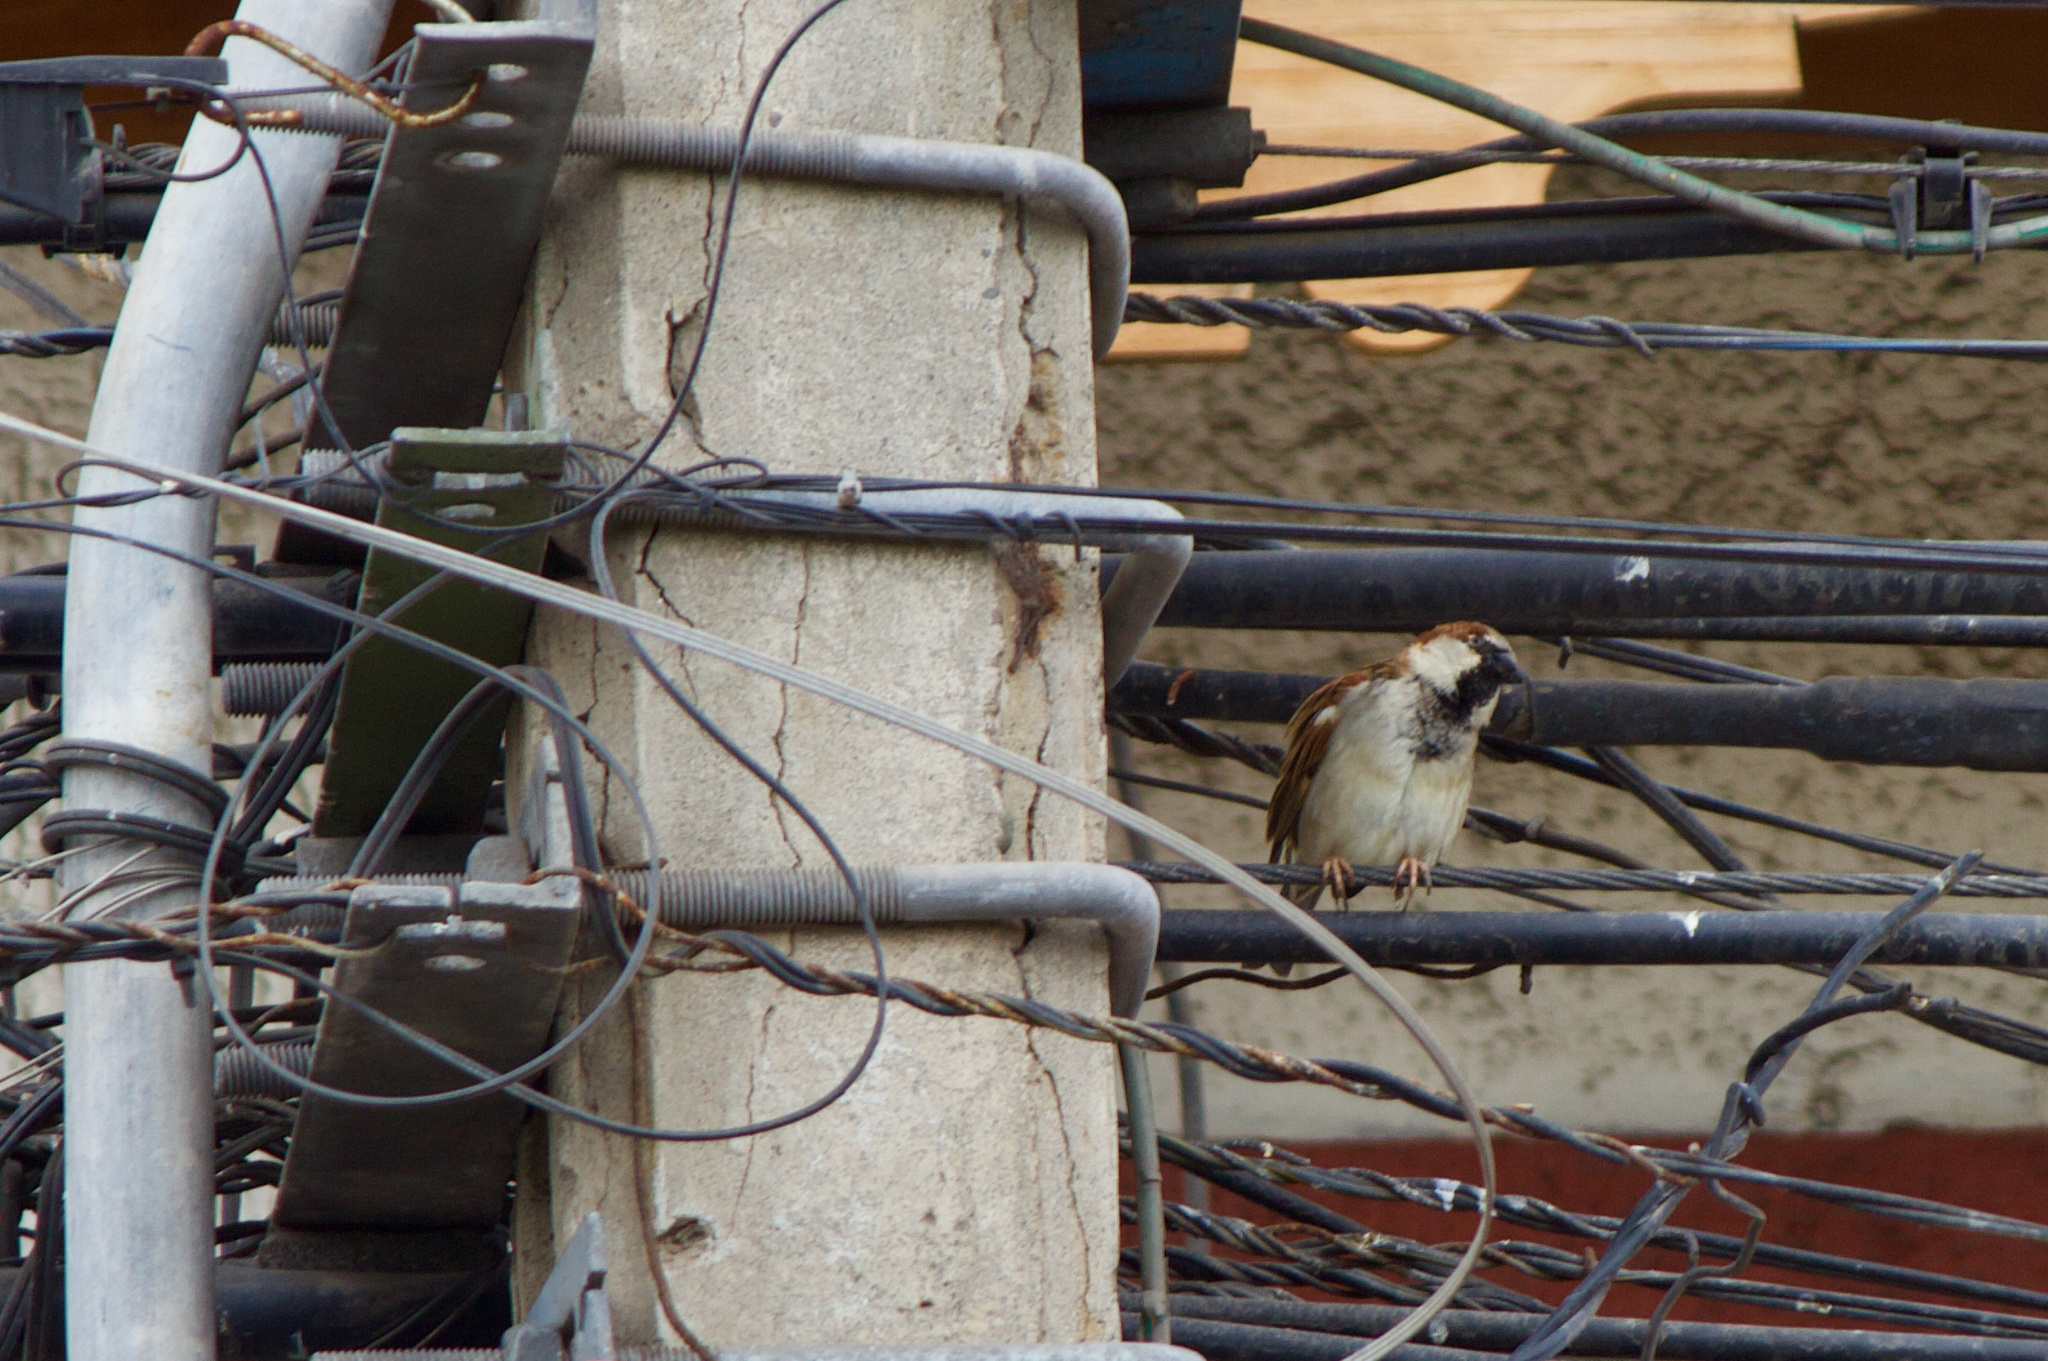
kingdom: Animalia
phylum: Chordata
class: Aves
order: Passeriformes
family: Passeridae
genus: Passer
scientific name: Passer domesticus
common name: House sparrow
